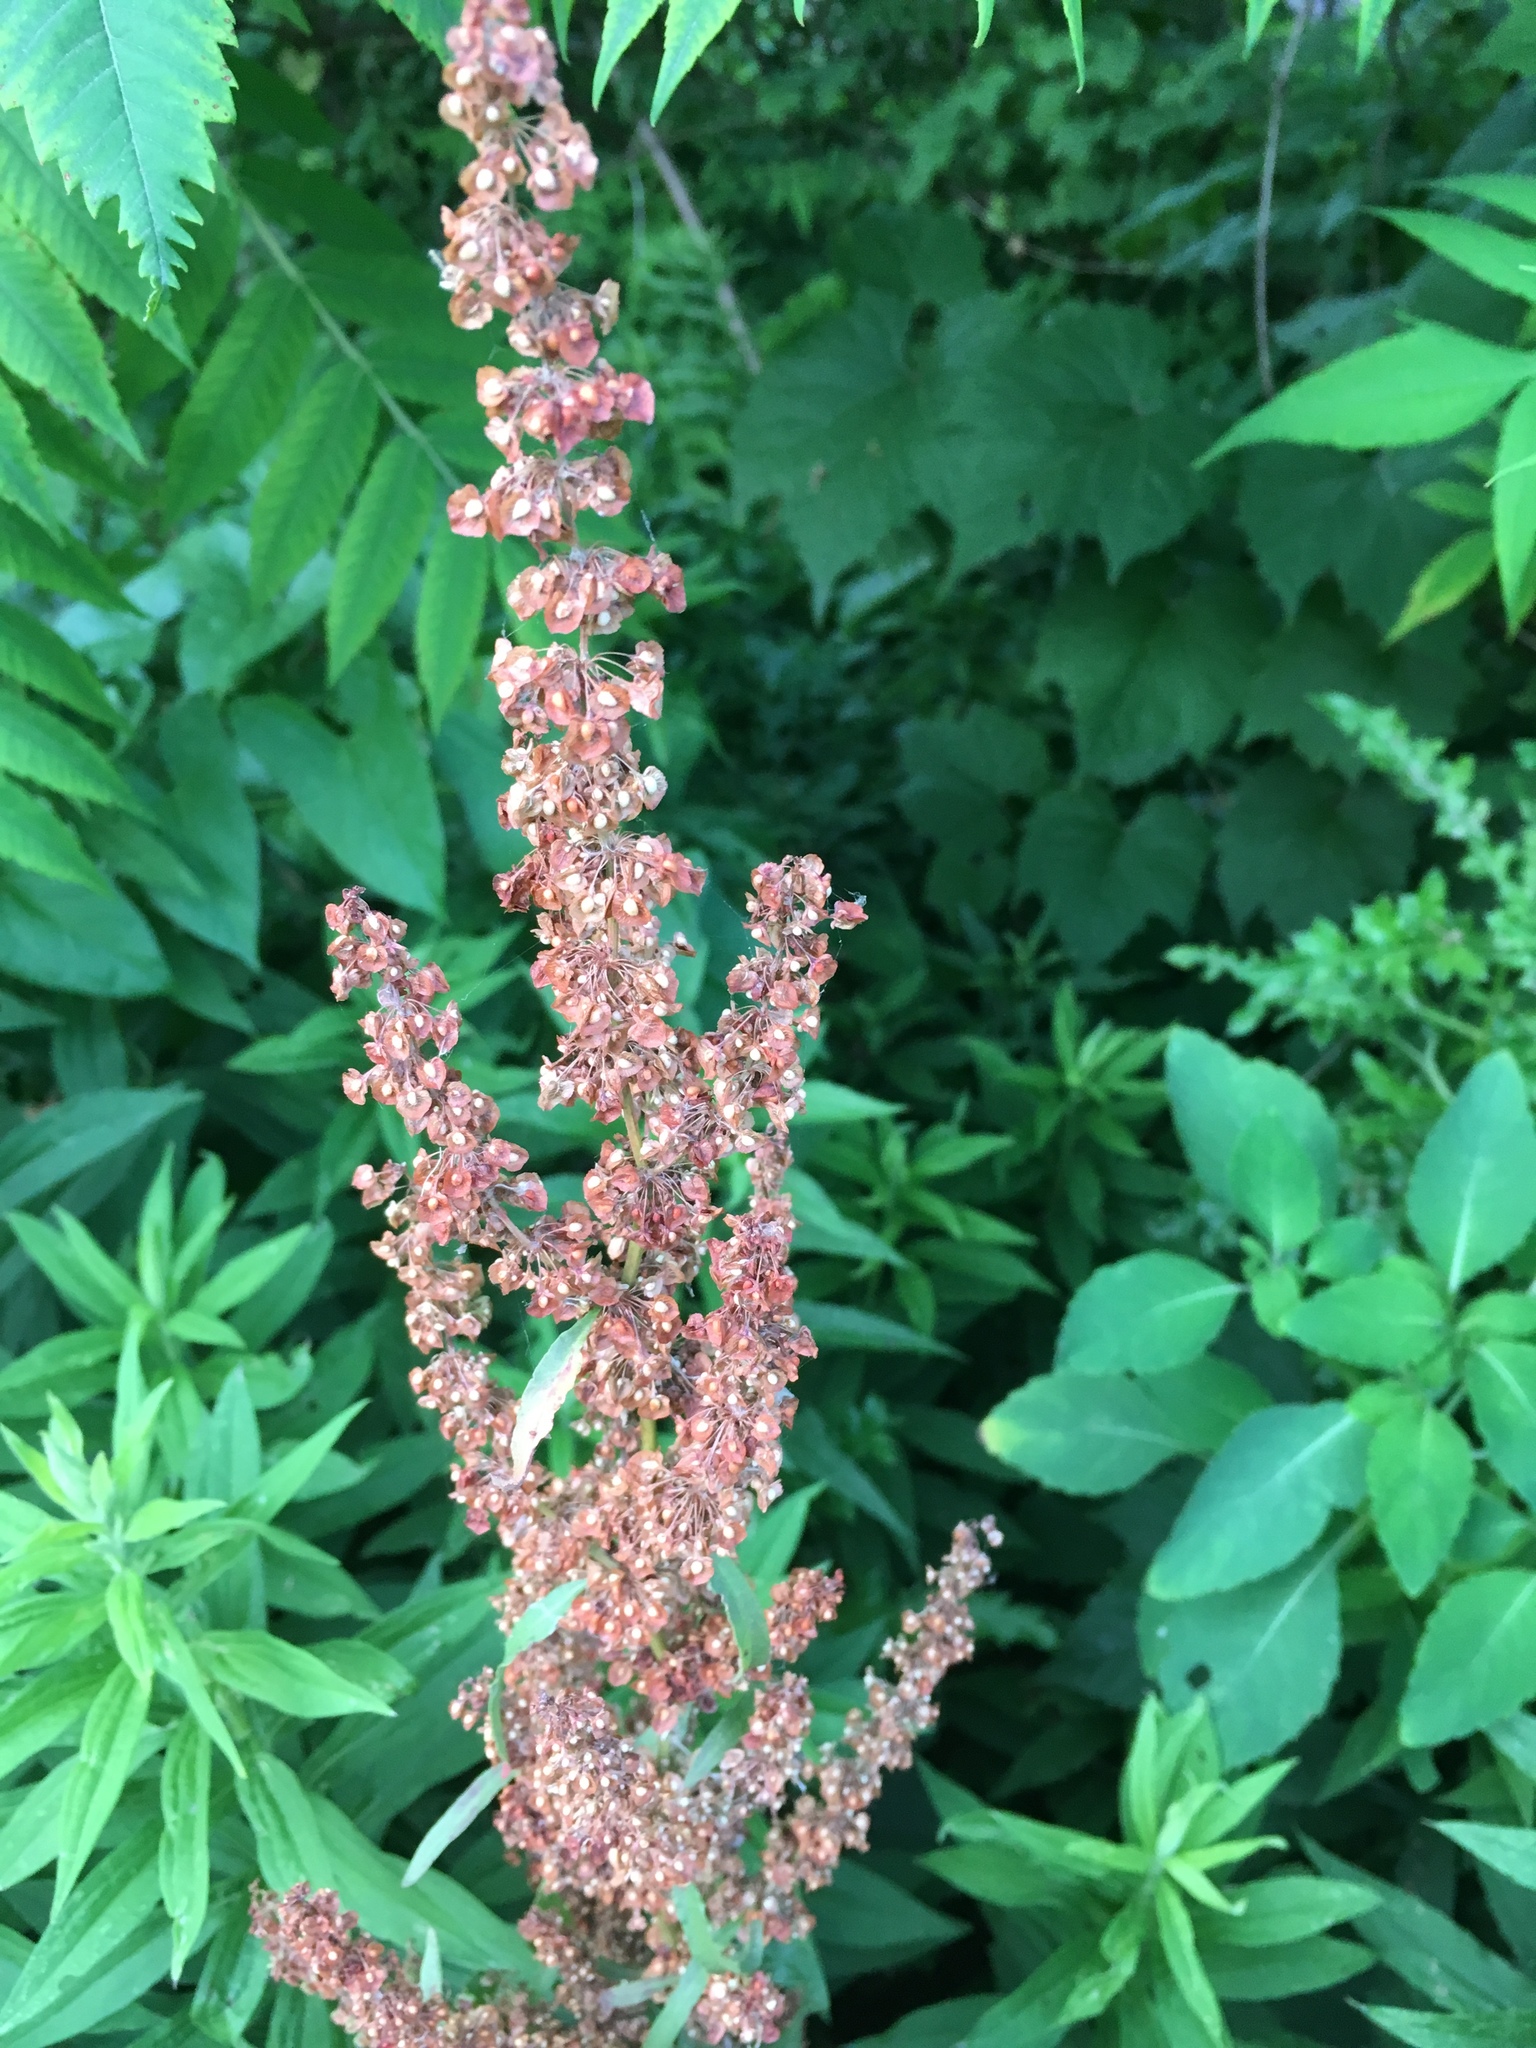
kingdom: Plantae
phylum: Tracheophyta
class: Magnoliopsida
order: Caryophyllales
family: Polygonaceae
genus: Rumex
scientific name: Rumex crispus
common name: Curled dock
